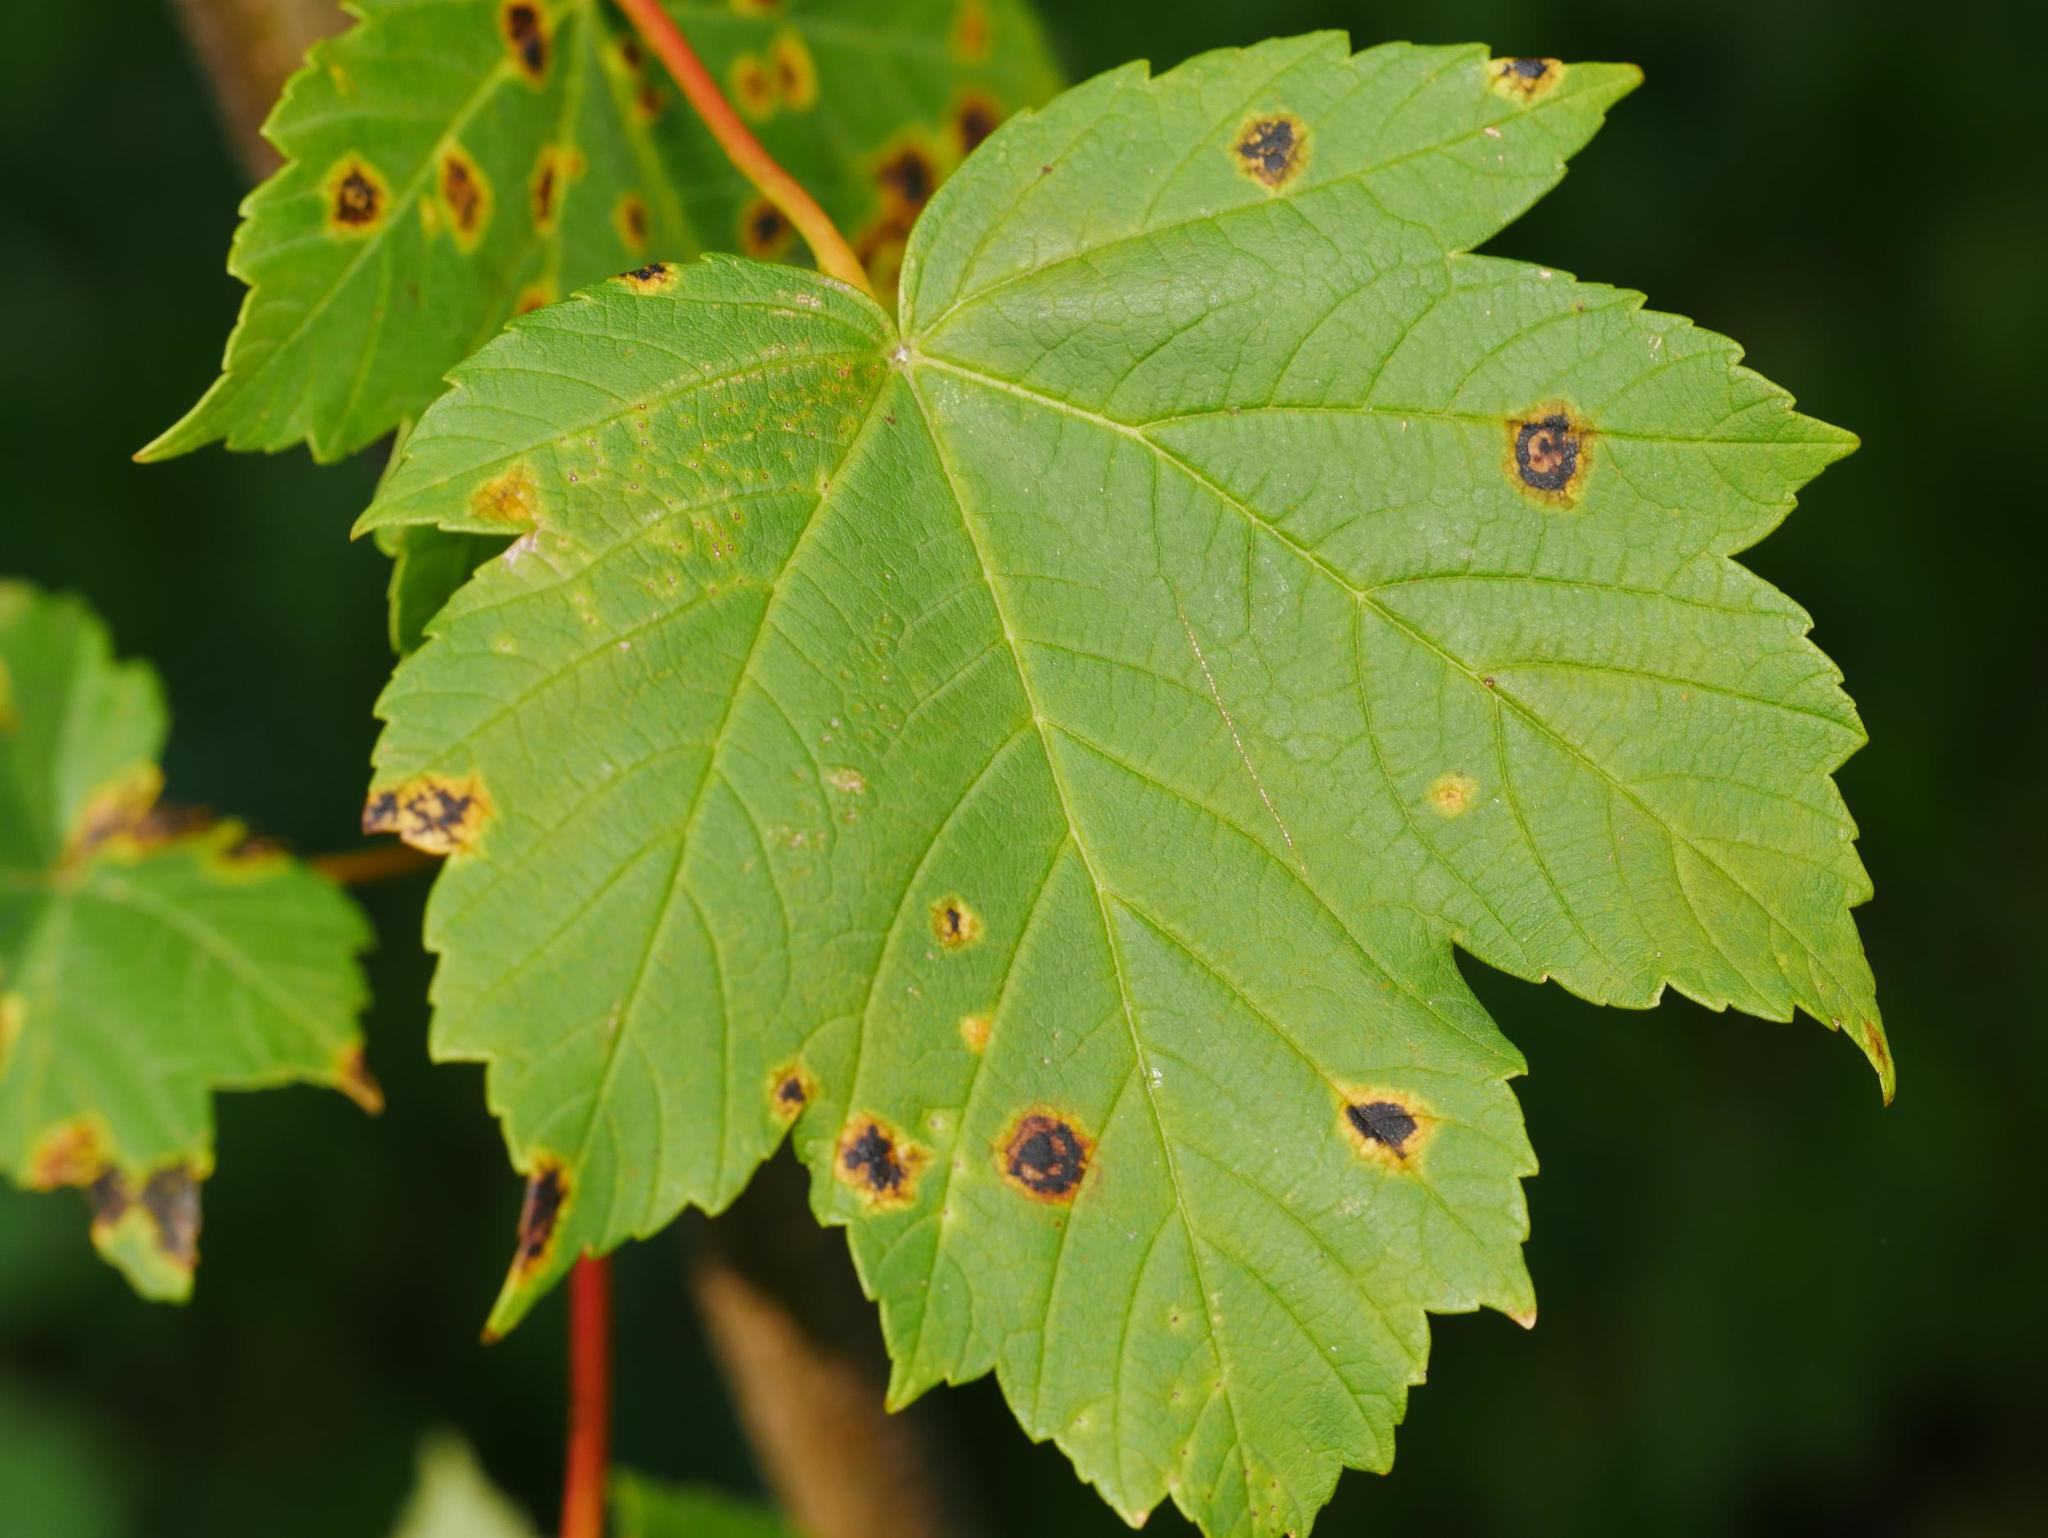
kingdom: Plantae
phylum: Tracheophyta
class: Magnoliopsida
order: Sapindales
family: Sapindaceae
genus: Acer
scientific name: Acer pseudoplatanus
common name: Sycamore
